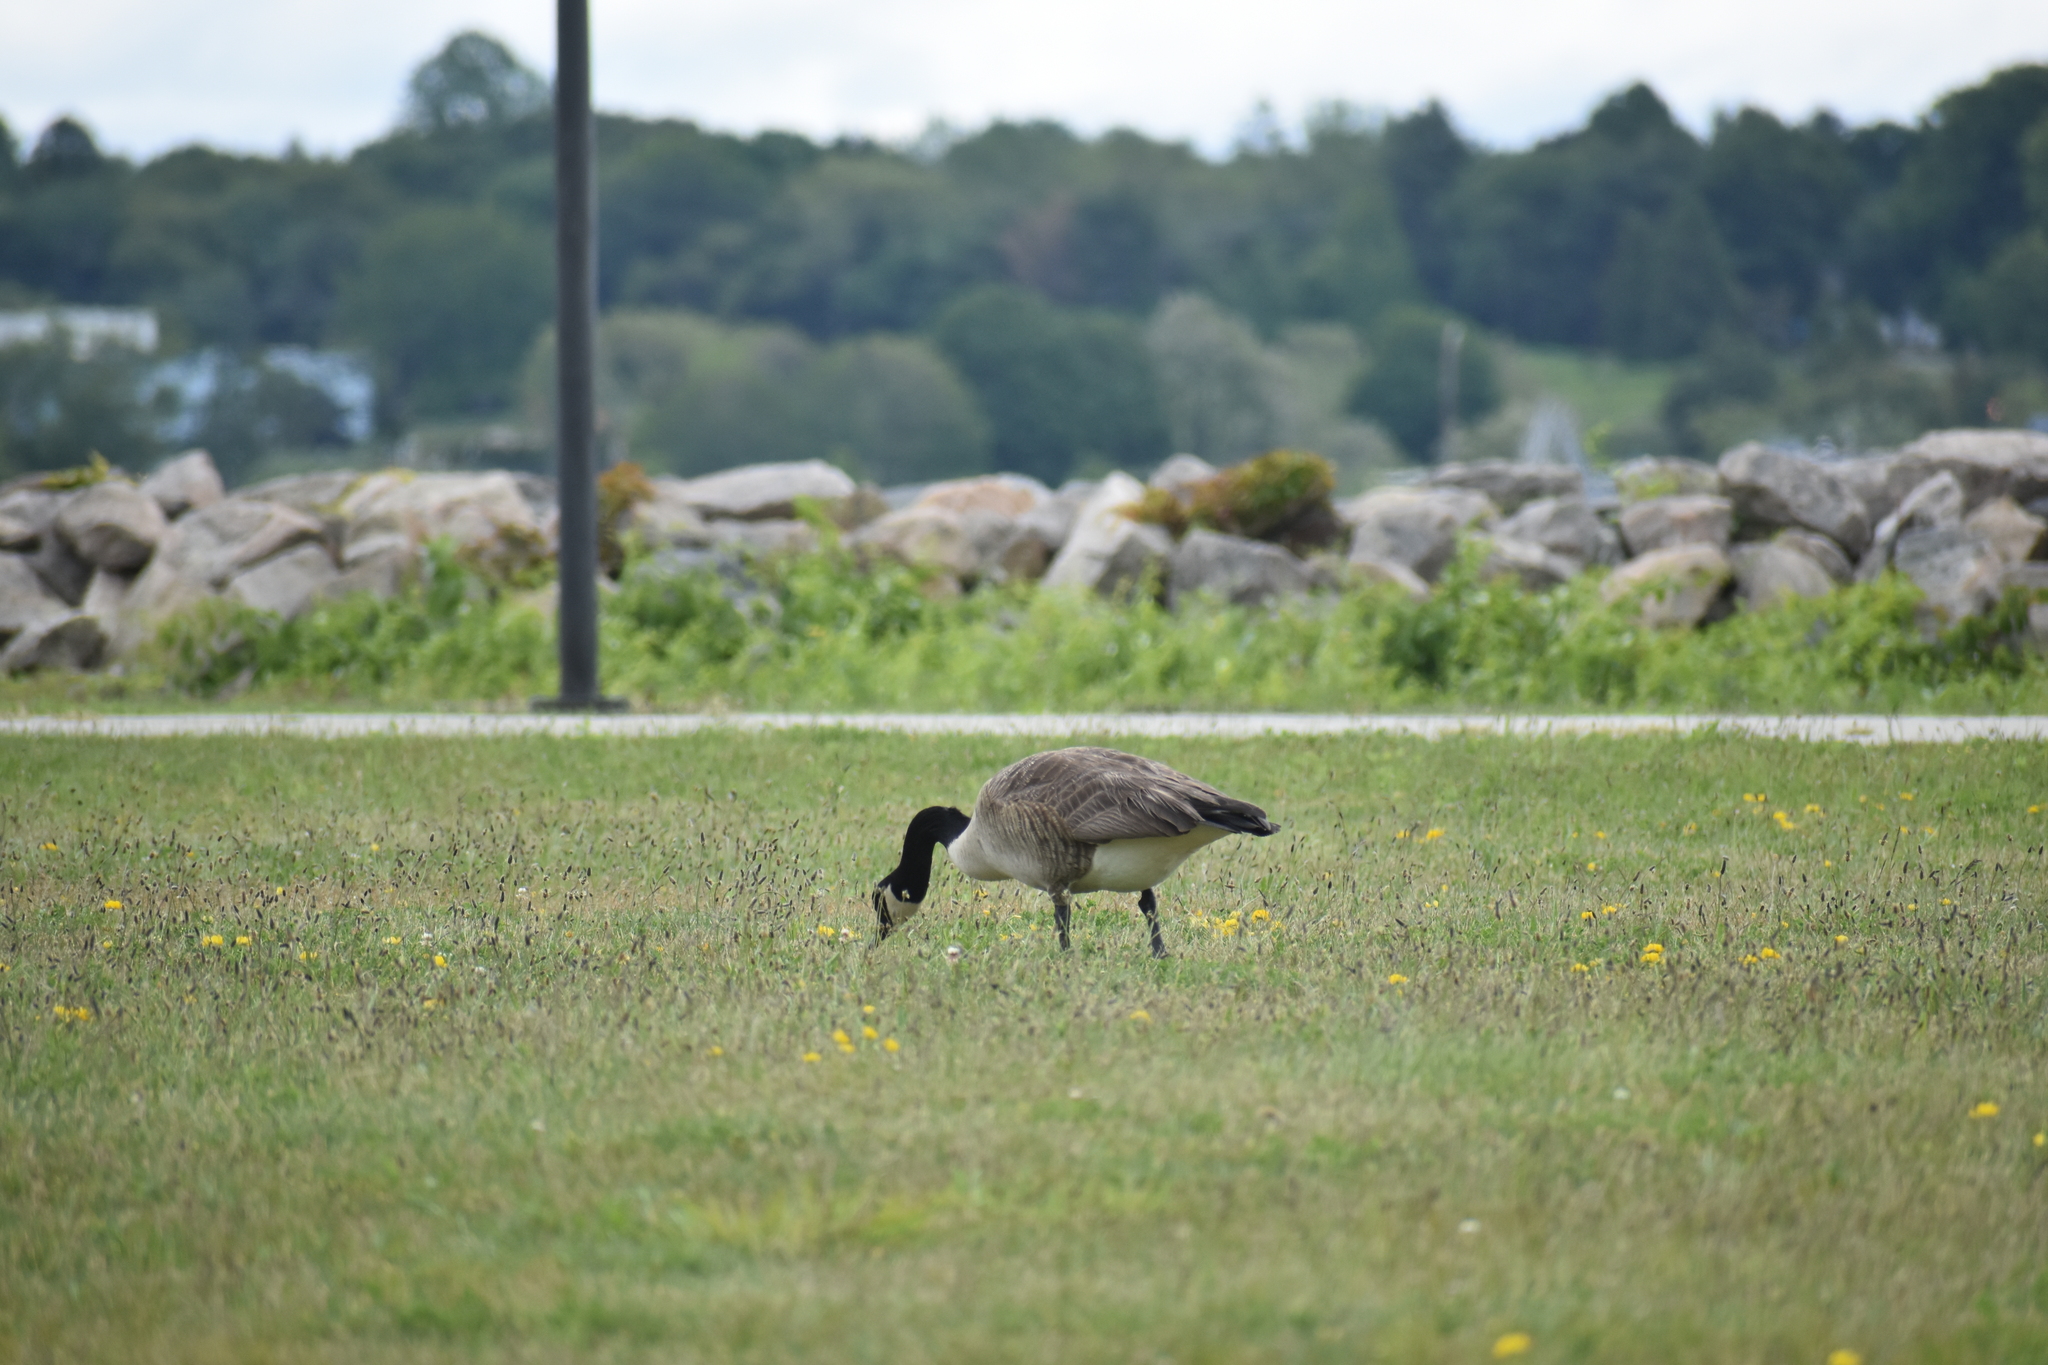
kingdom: Animalia
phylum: Chordata
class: Aves
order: Anseriformes
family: Anatidae
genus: Branta
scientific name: Branta canadensis
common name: Canada goose
